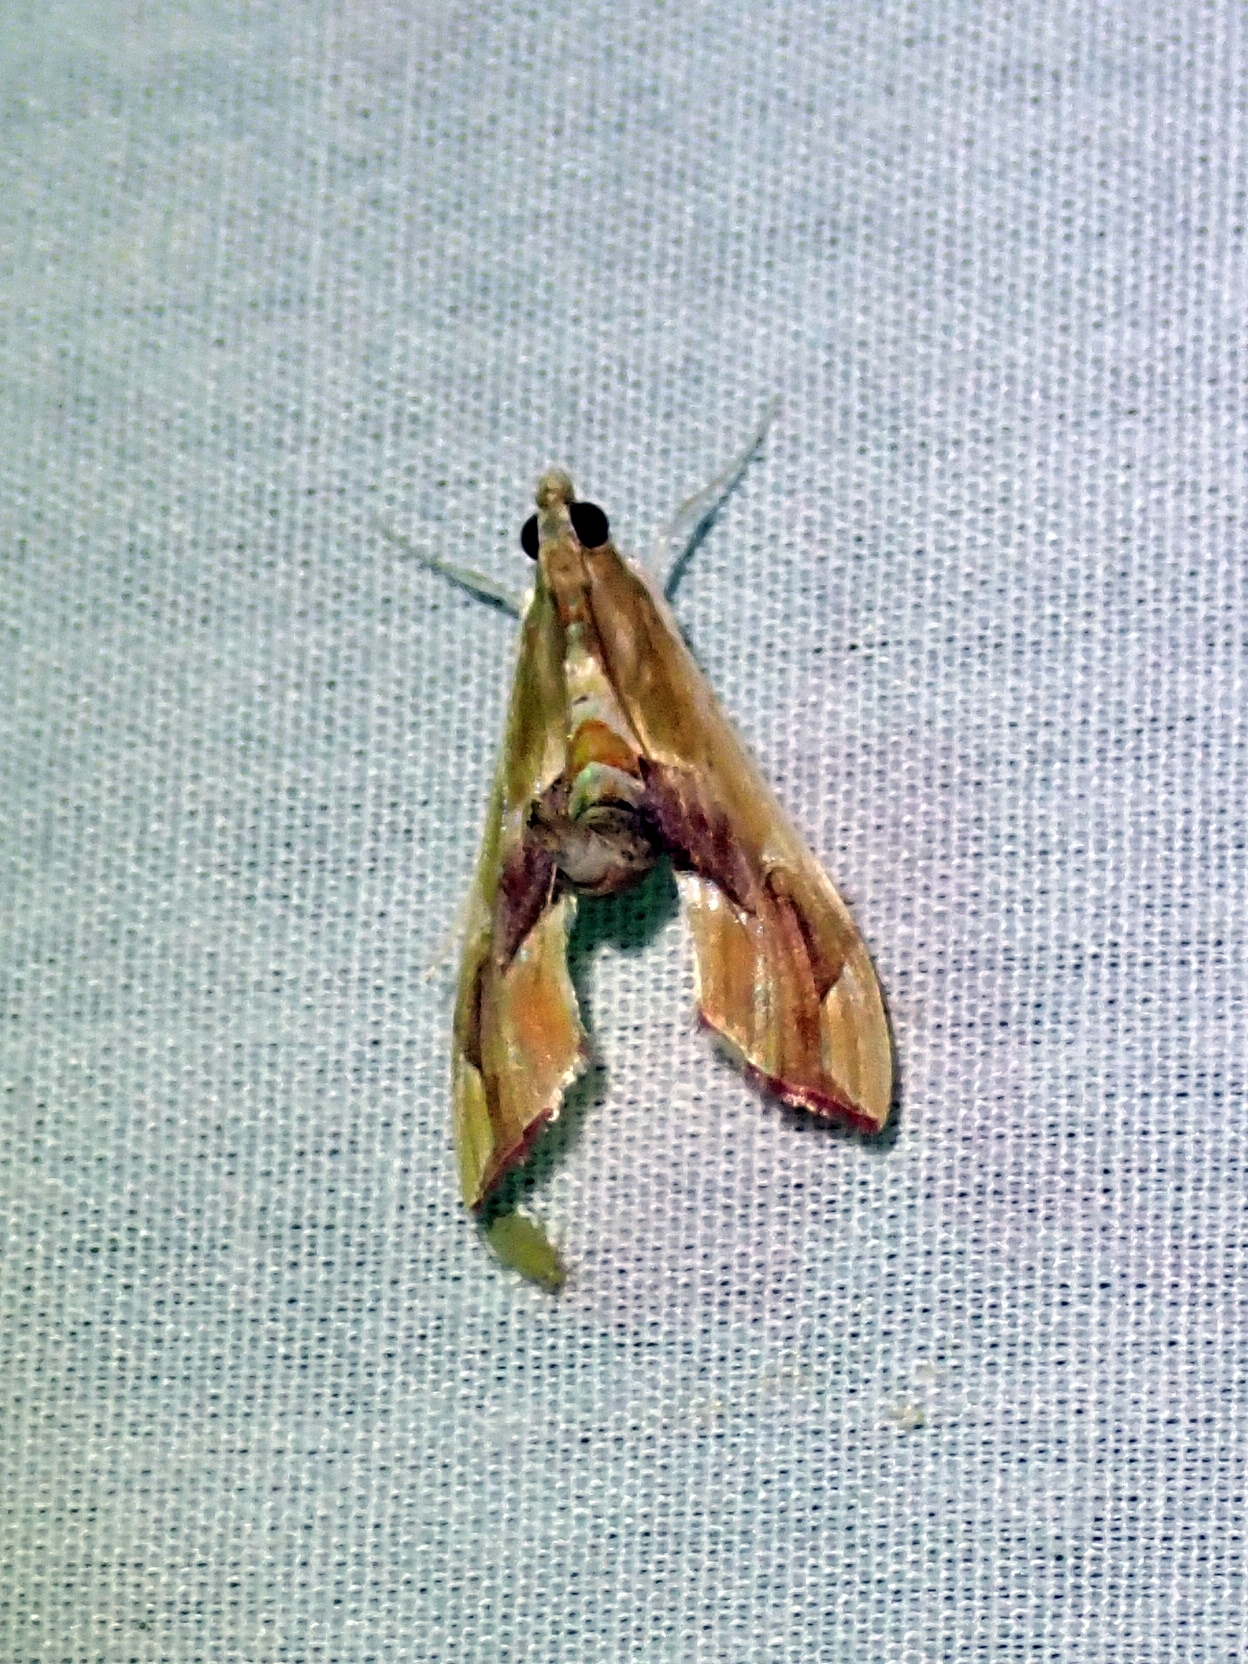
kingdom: Animalia
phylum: Arthropoda
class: Insecta
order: Lepidoptera
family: Crambidae
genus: Agathodes
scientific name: Agathodes monstralis
